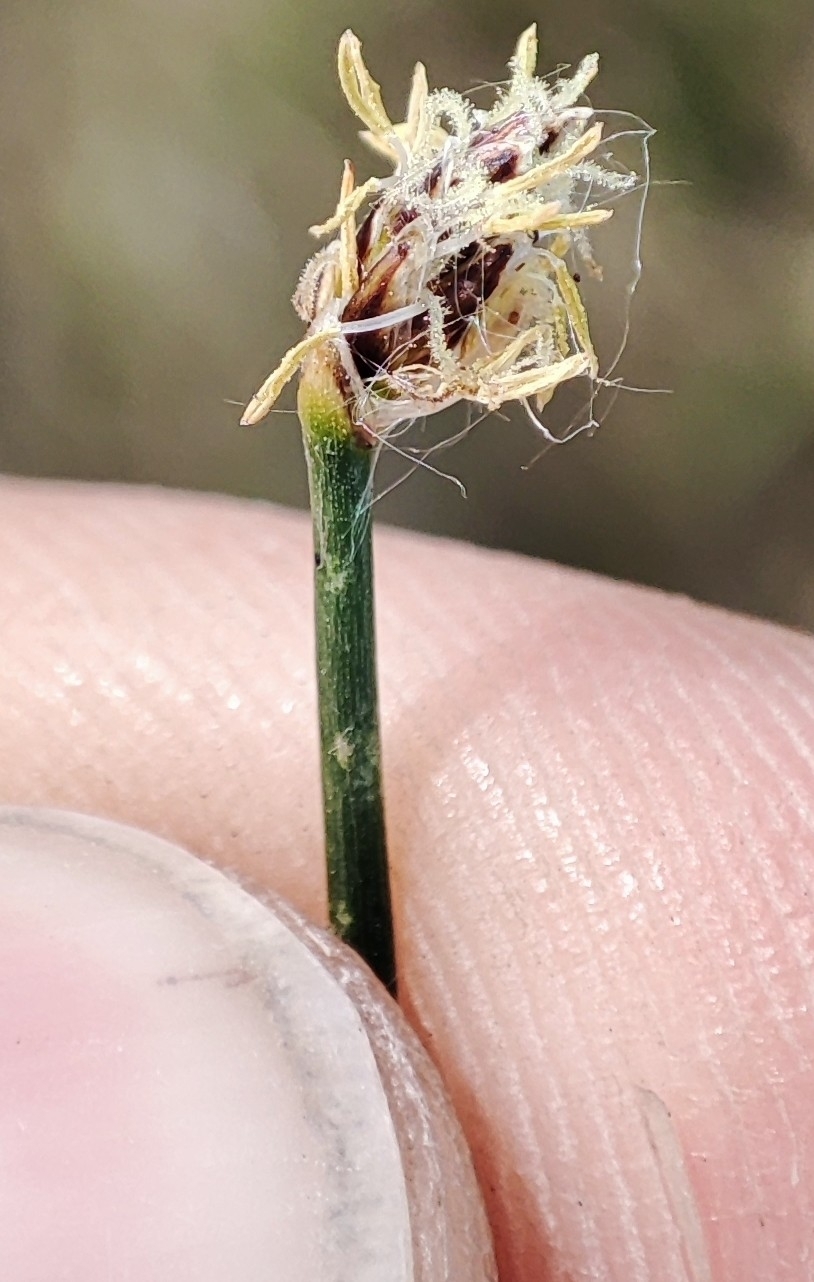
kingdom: Plantae
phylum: Tracheophyta
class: Liliopsida
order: Poales
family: Cyperaceae
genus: Eleocharis
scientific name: Eleocharis palustris
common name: Common spike-rush
